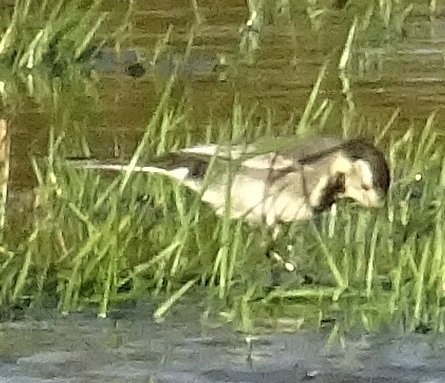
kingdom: Animalia
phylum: Chordata
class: Aves
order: Passeriformes
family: Motacillidae
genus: Motacilla
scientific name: Motacilla alba
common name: White wagtail
